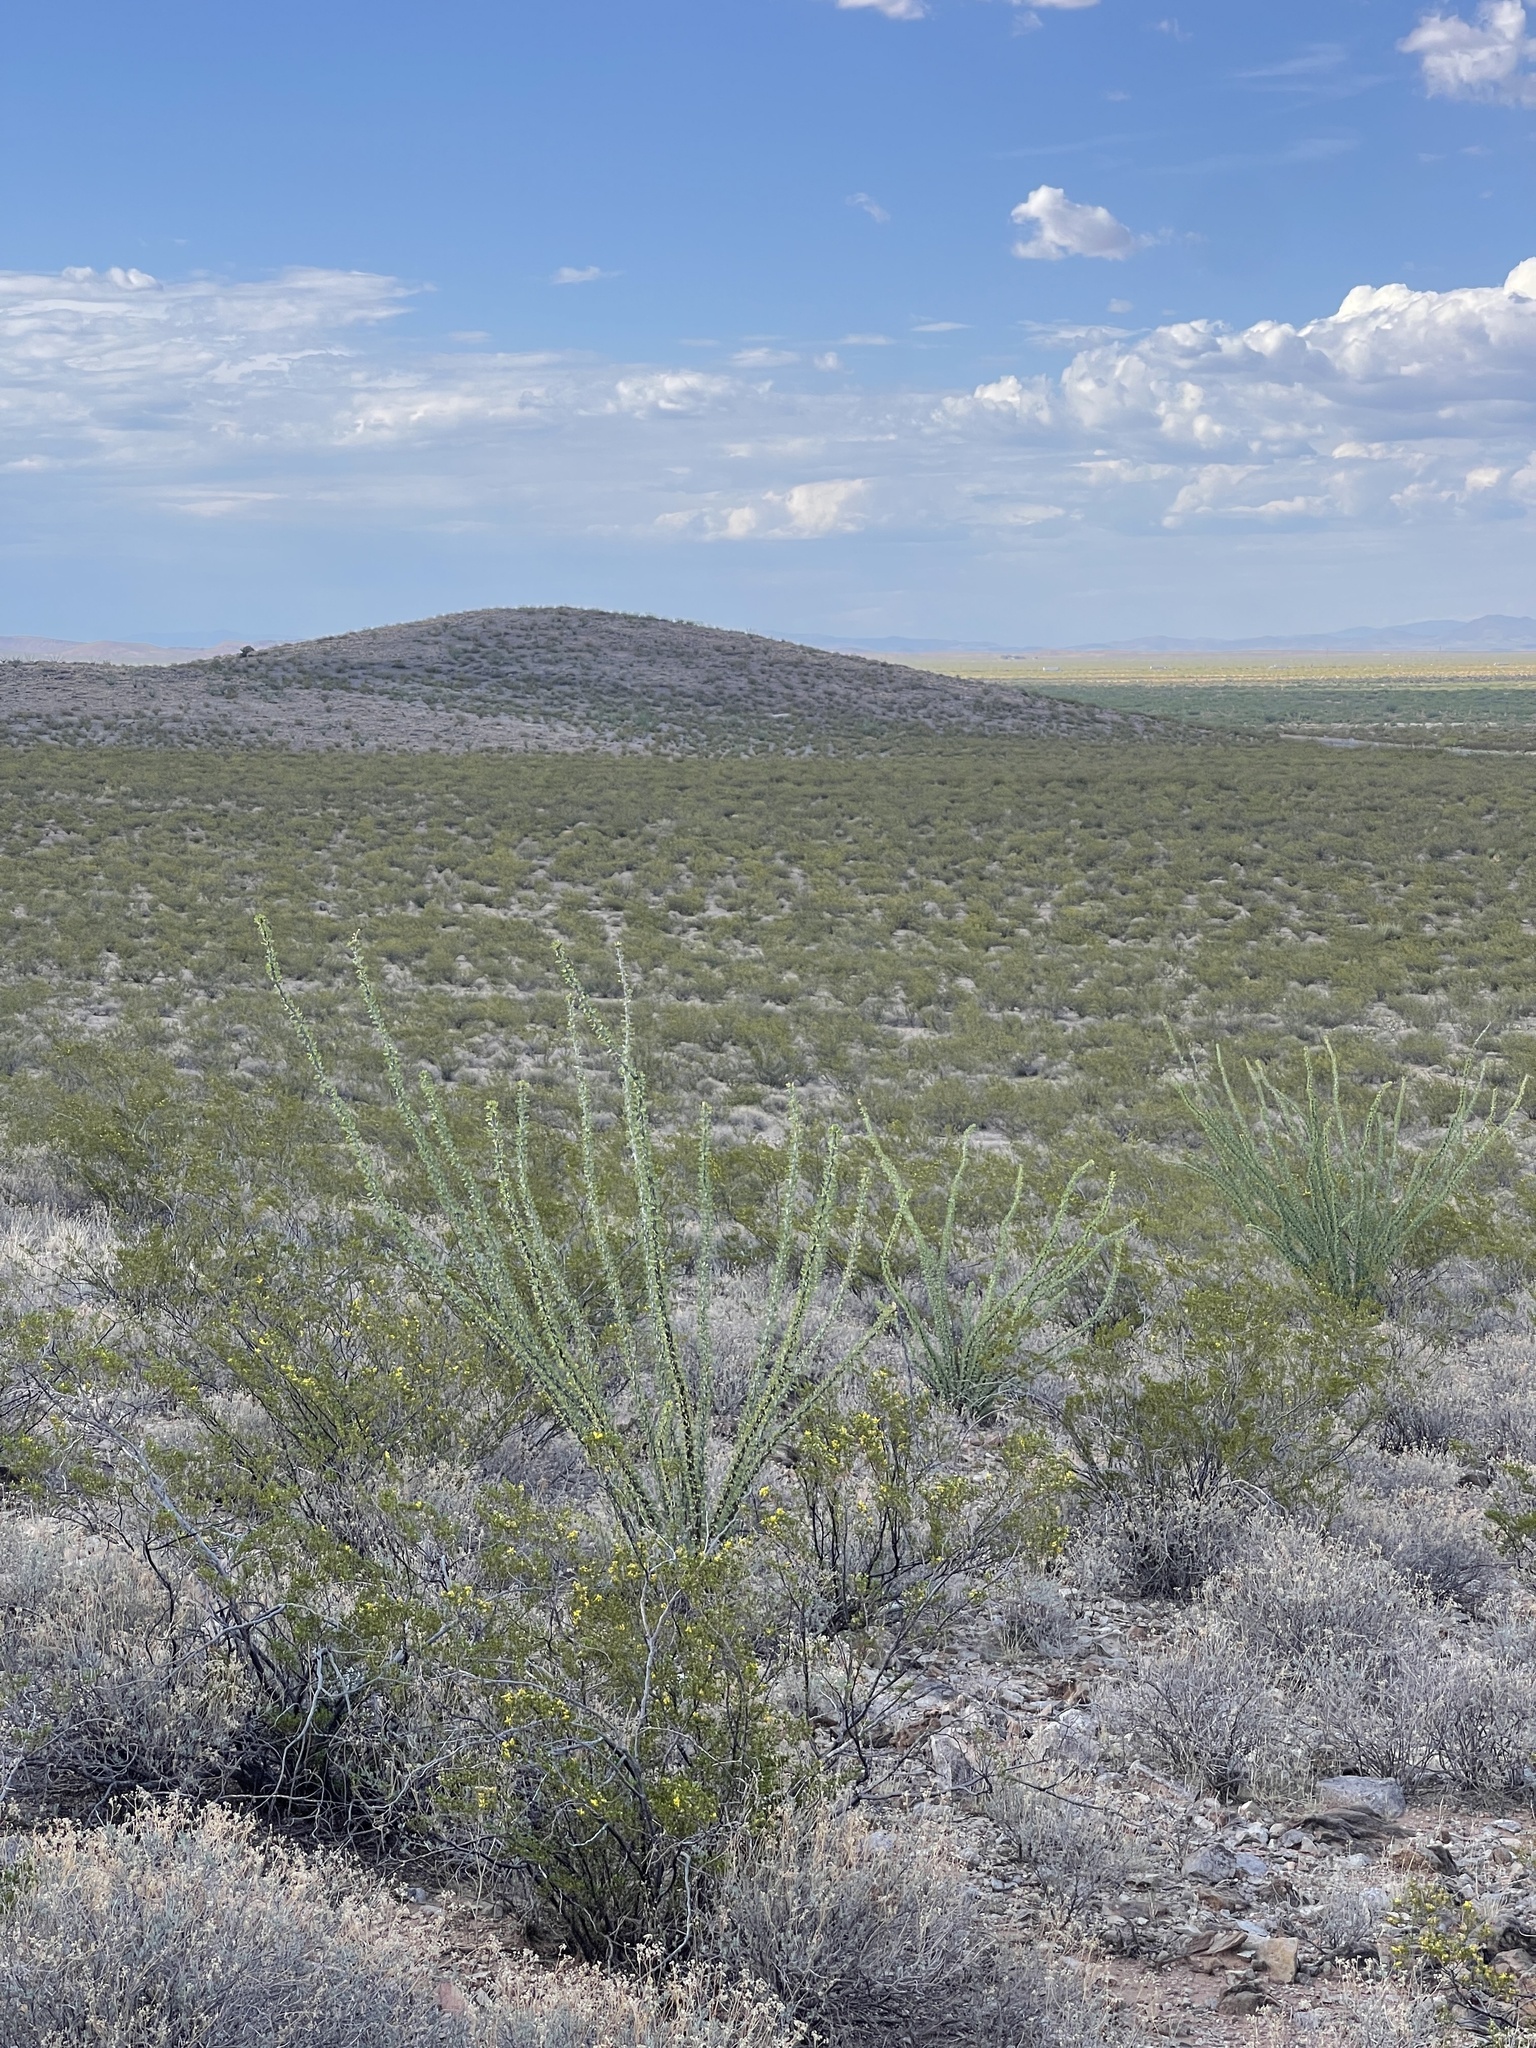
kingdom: Plantae
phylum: Tracheophyta
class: Magnoliopsida
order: Ericales
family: Fouquieriaceae
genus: Fouquieria
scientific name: Fouquieria splendens
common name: Vine-cactus
